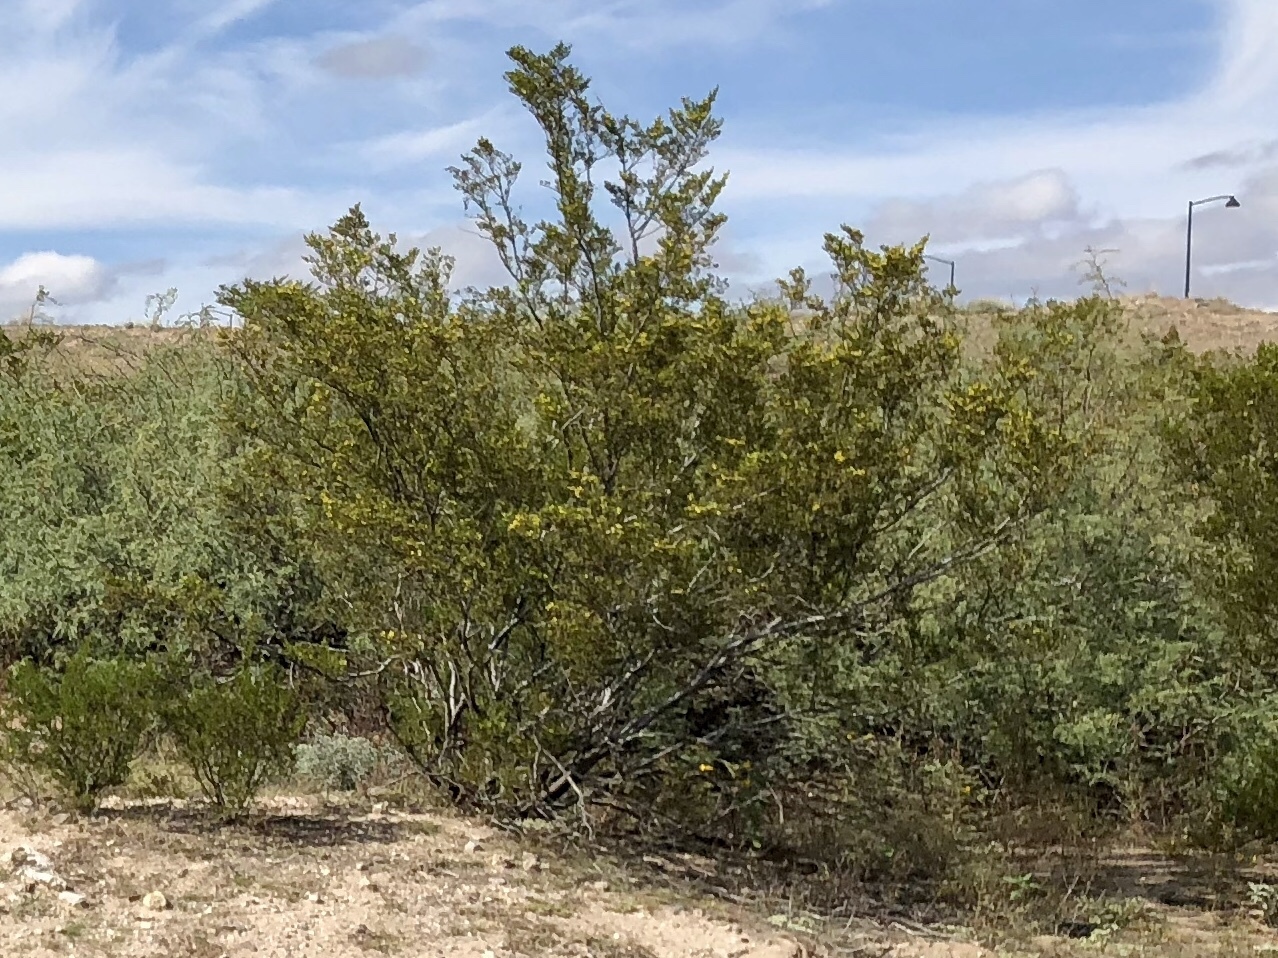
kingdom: Plantae
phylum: Tracheophyta
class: Magnoliopsida
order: Zygophyllales
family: Zygophyllaceae
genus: Larrea
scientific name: Larrea tridentata
